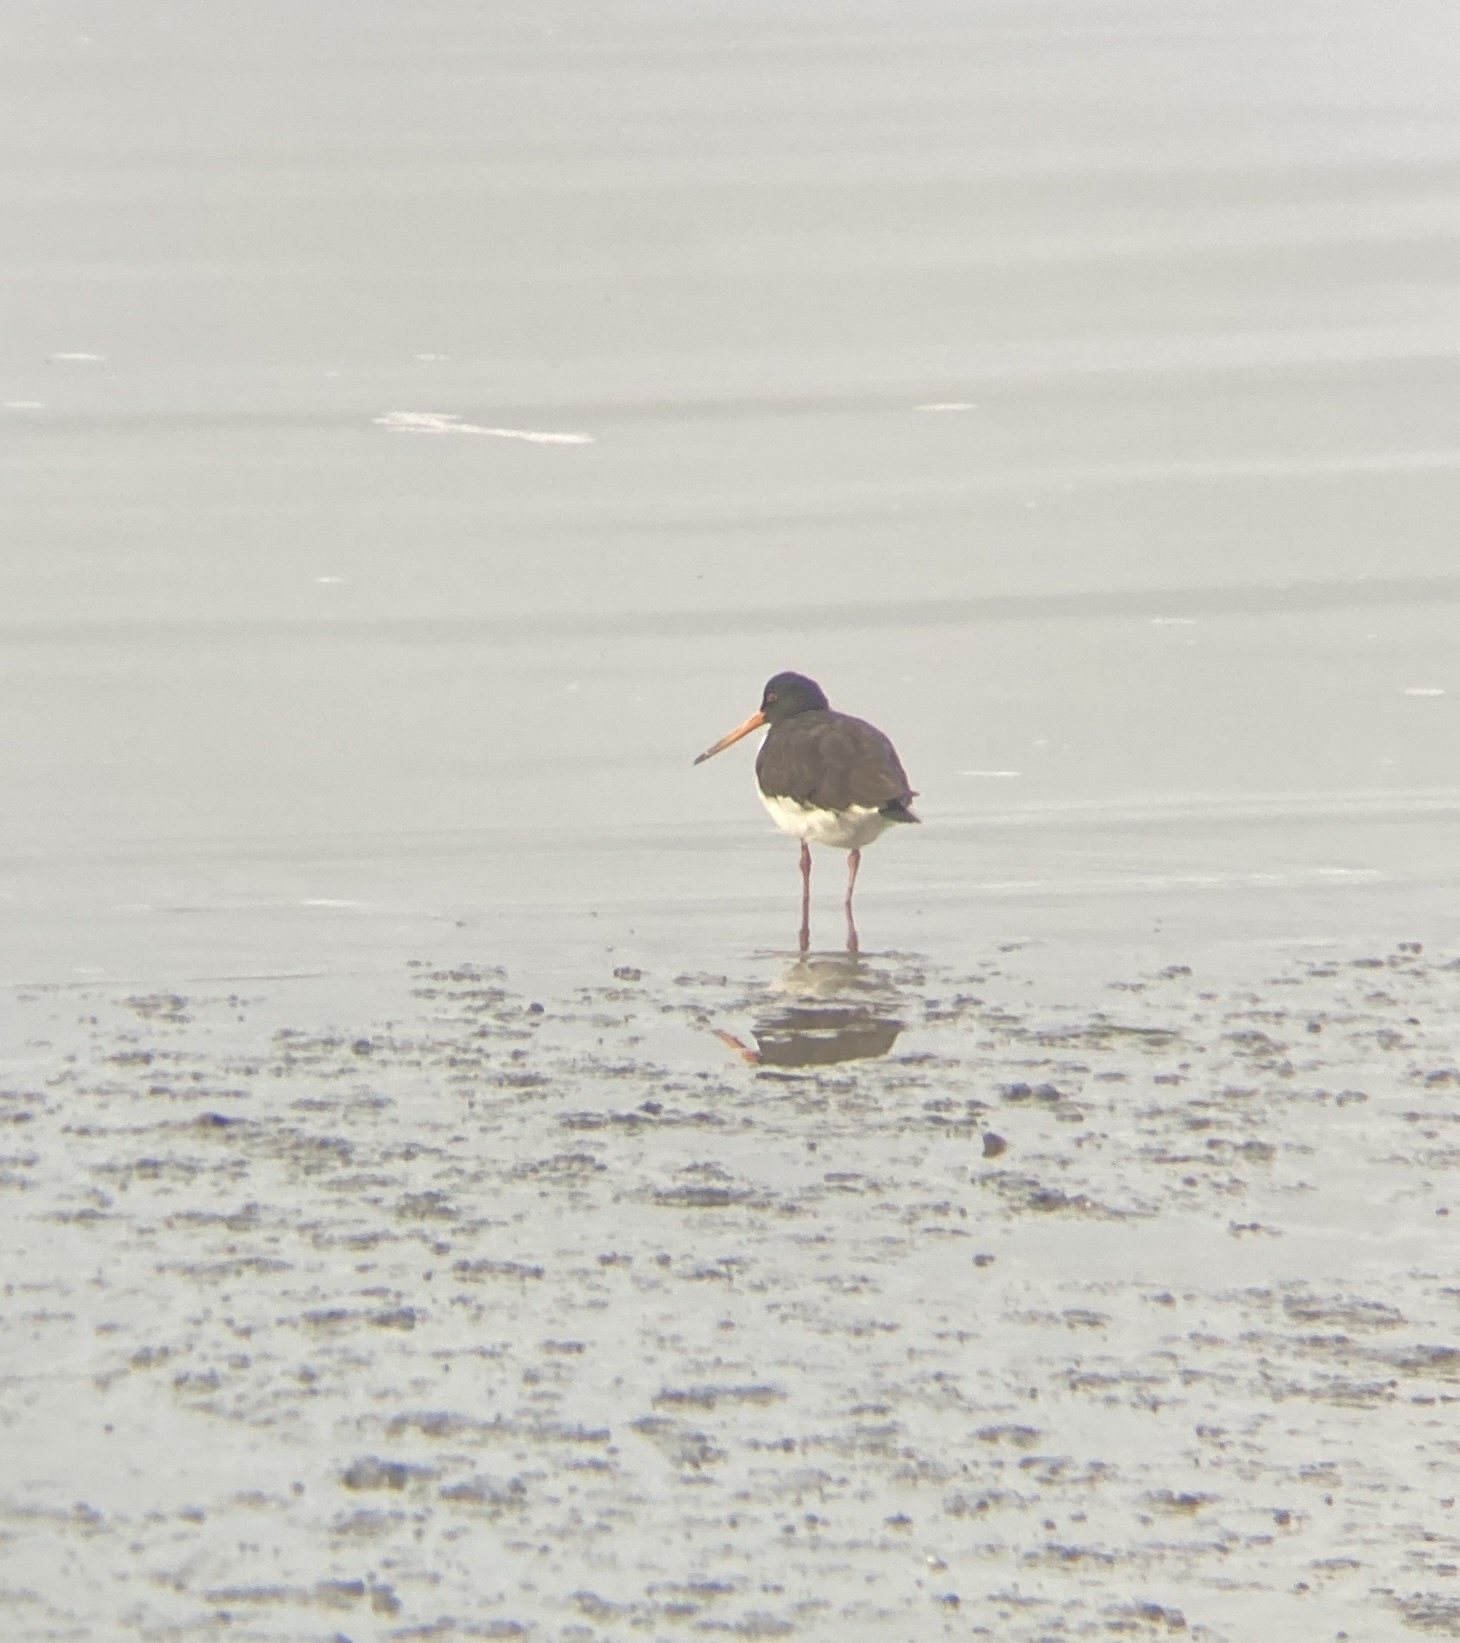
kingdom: Animalia
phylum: Chordata
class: Aves
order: Charadriiformes
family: Haematopodidae
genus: Haematopus
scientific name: Haematopus finschi
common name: South island oystercatcher
